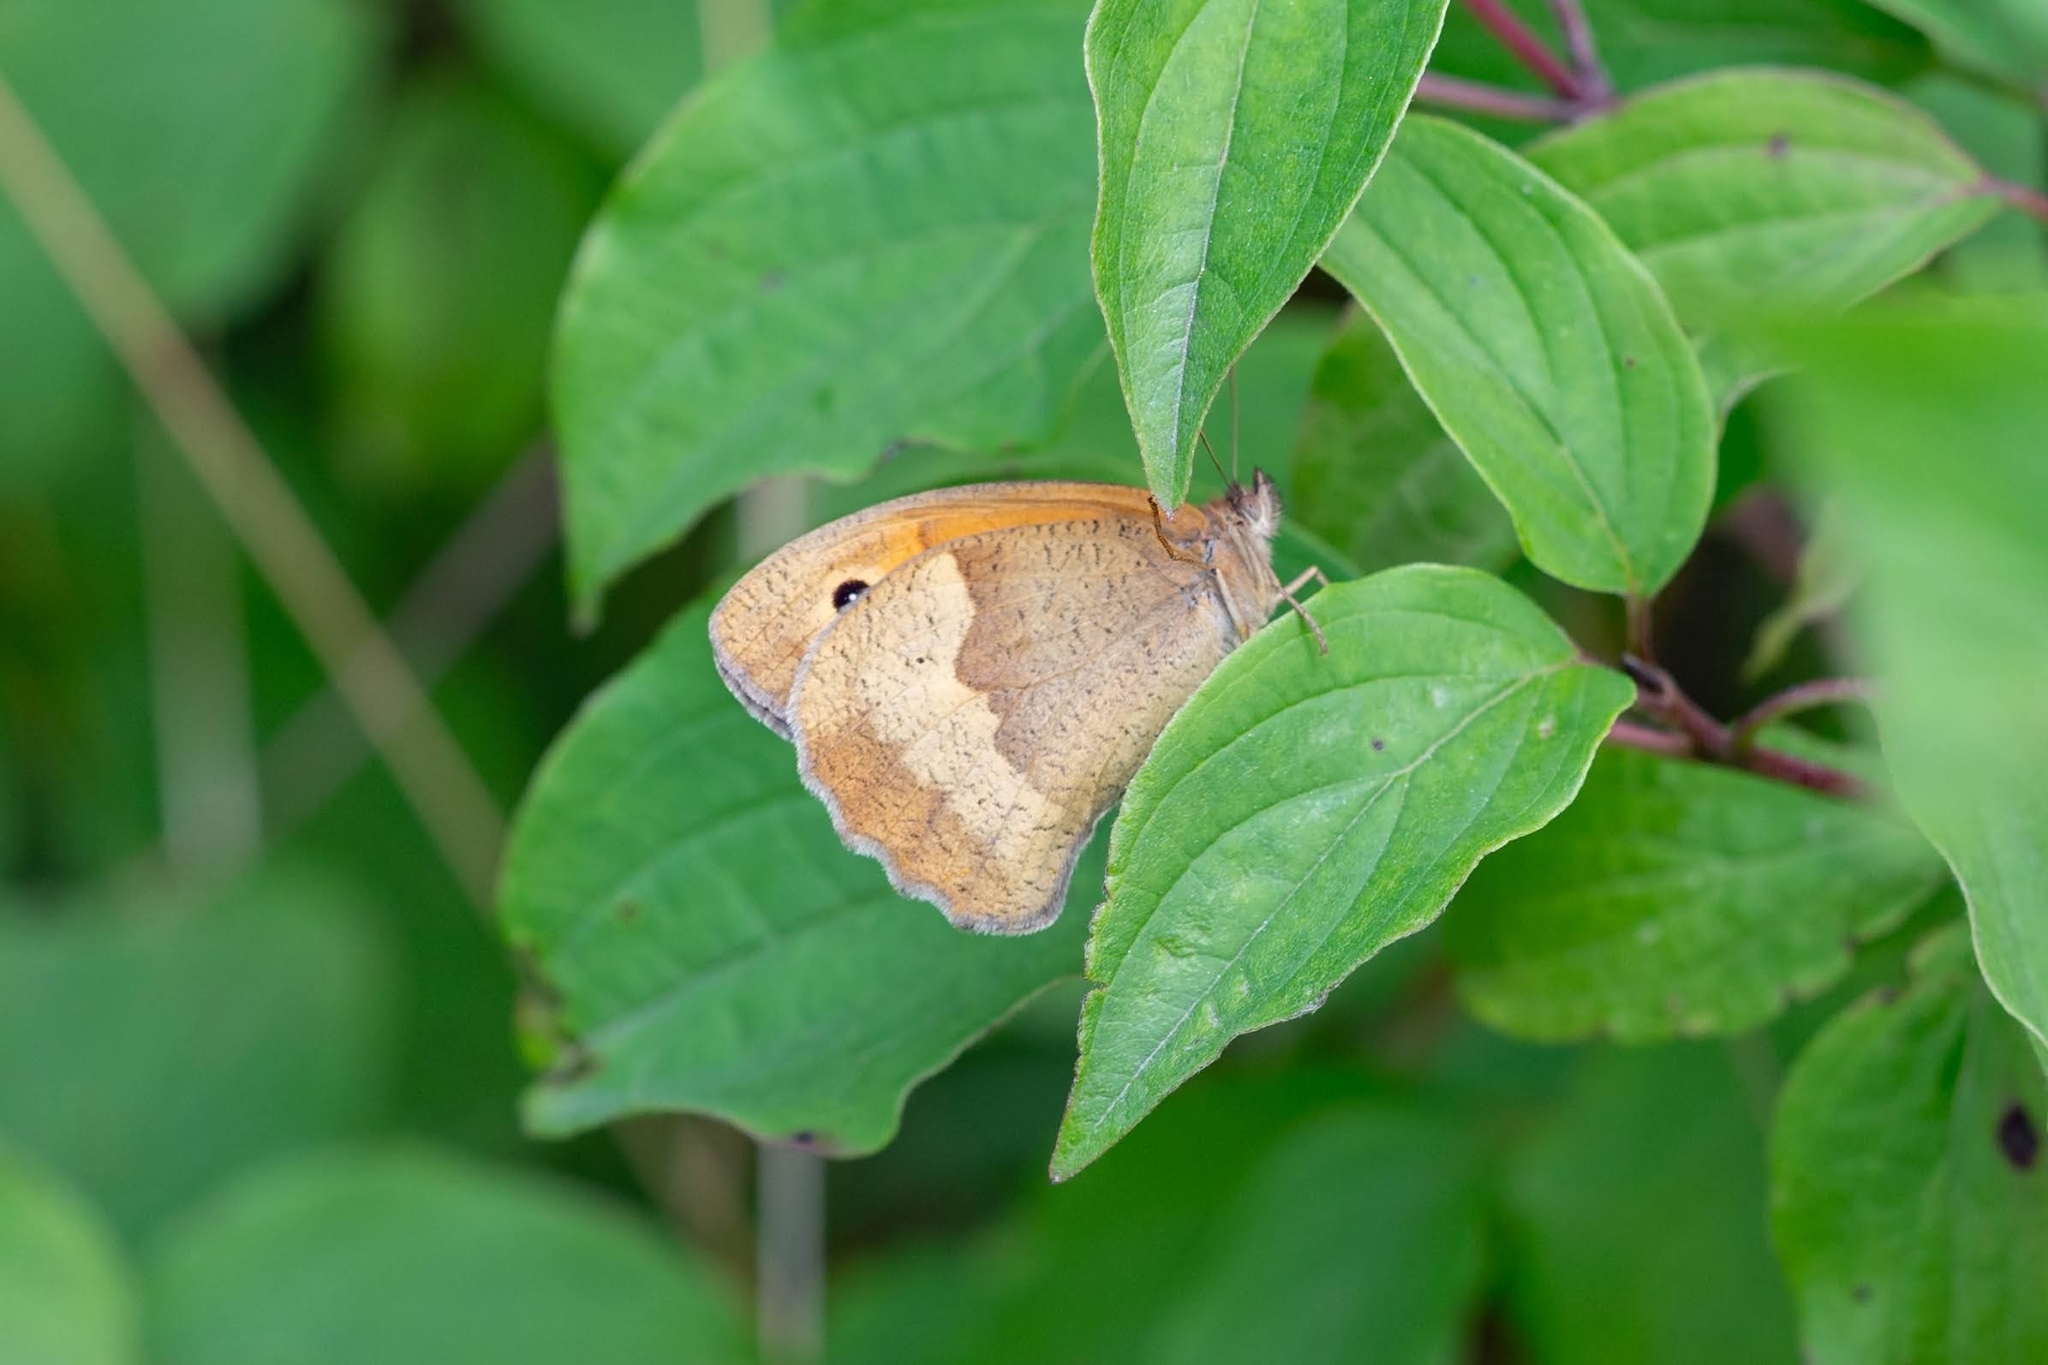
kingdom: Animalia
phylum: Arthropoda
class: Insecta
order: Lepidoptera
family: Nymphalidae
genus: Maniola
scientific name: Maniola jurtina
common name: Meadow brown
